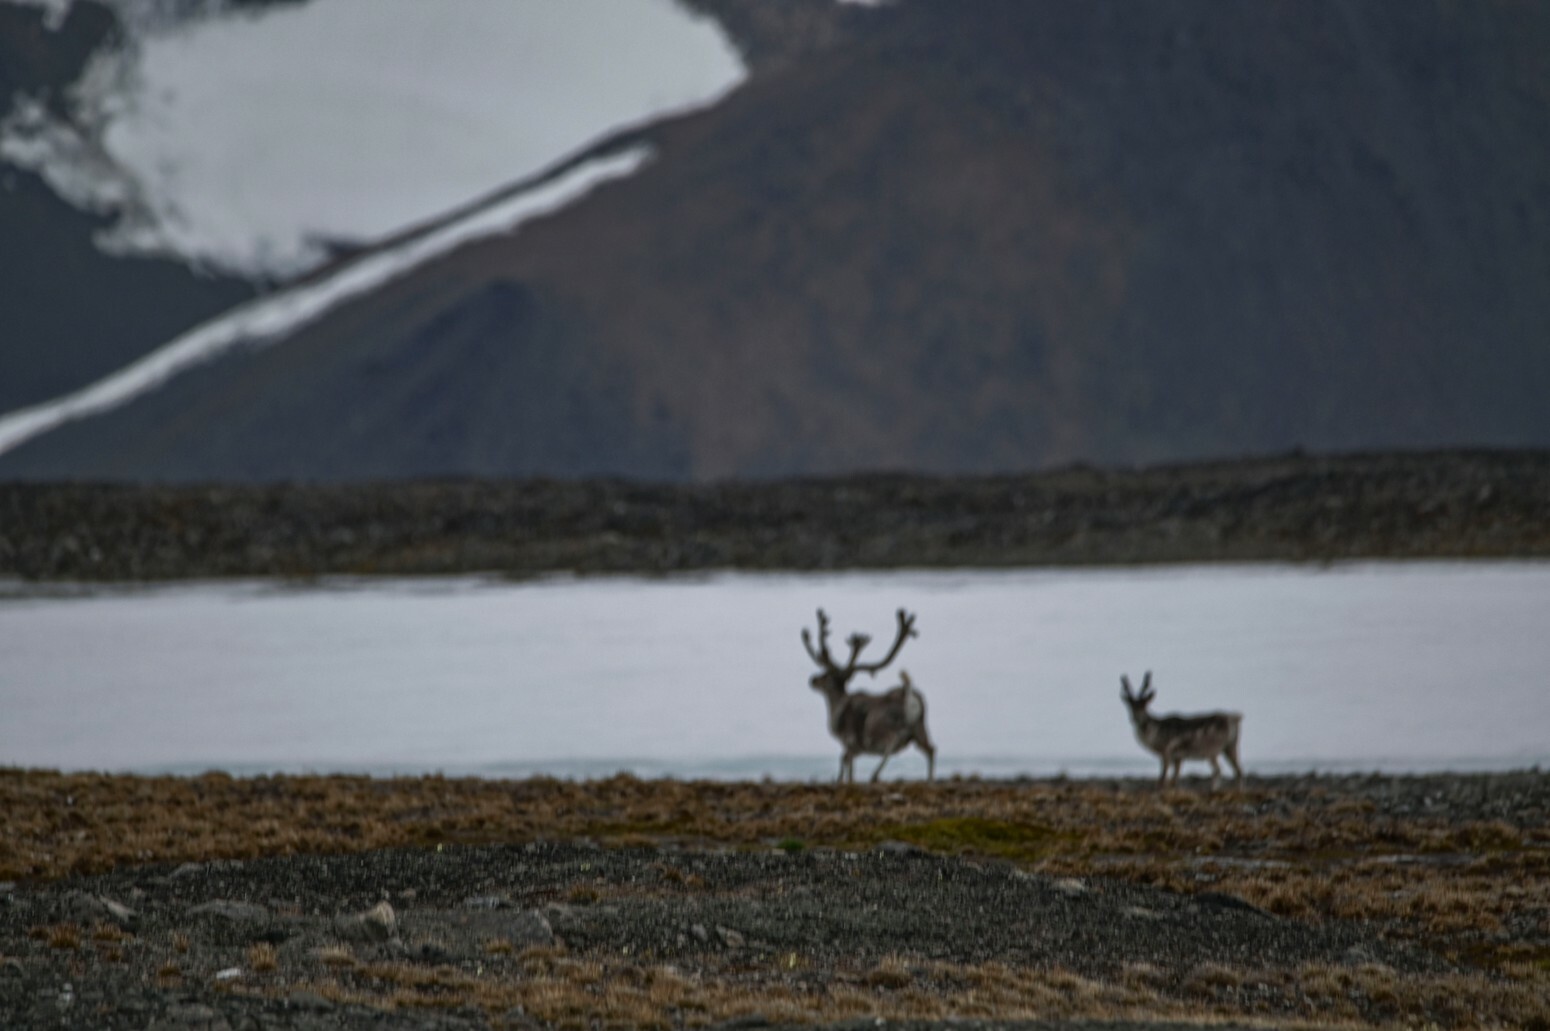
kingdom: Animalia
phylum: Chordata
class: Mammalia
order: Artiodactyla
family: Cervidae
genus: Rangifer
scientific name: Rangifer tarandus
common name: Reindeer
